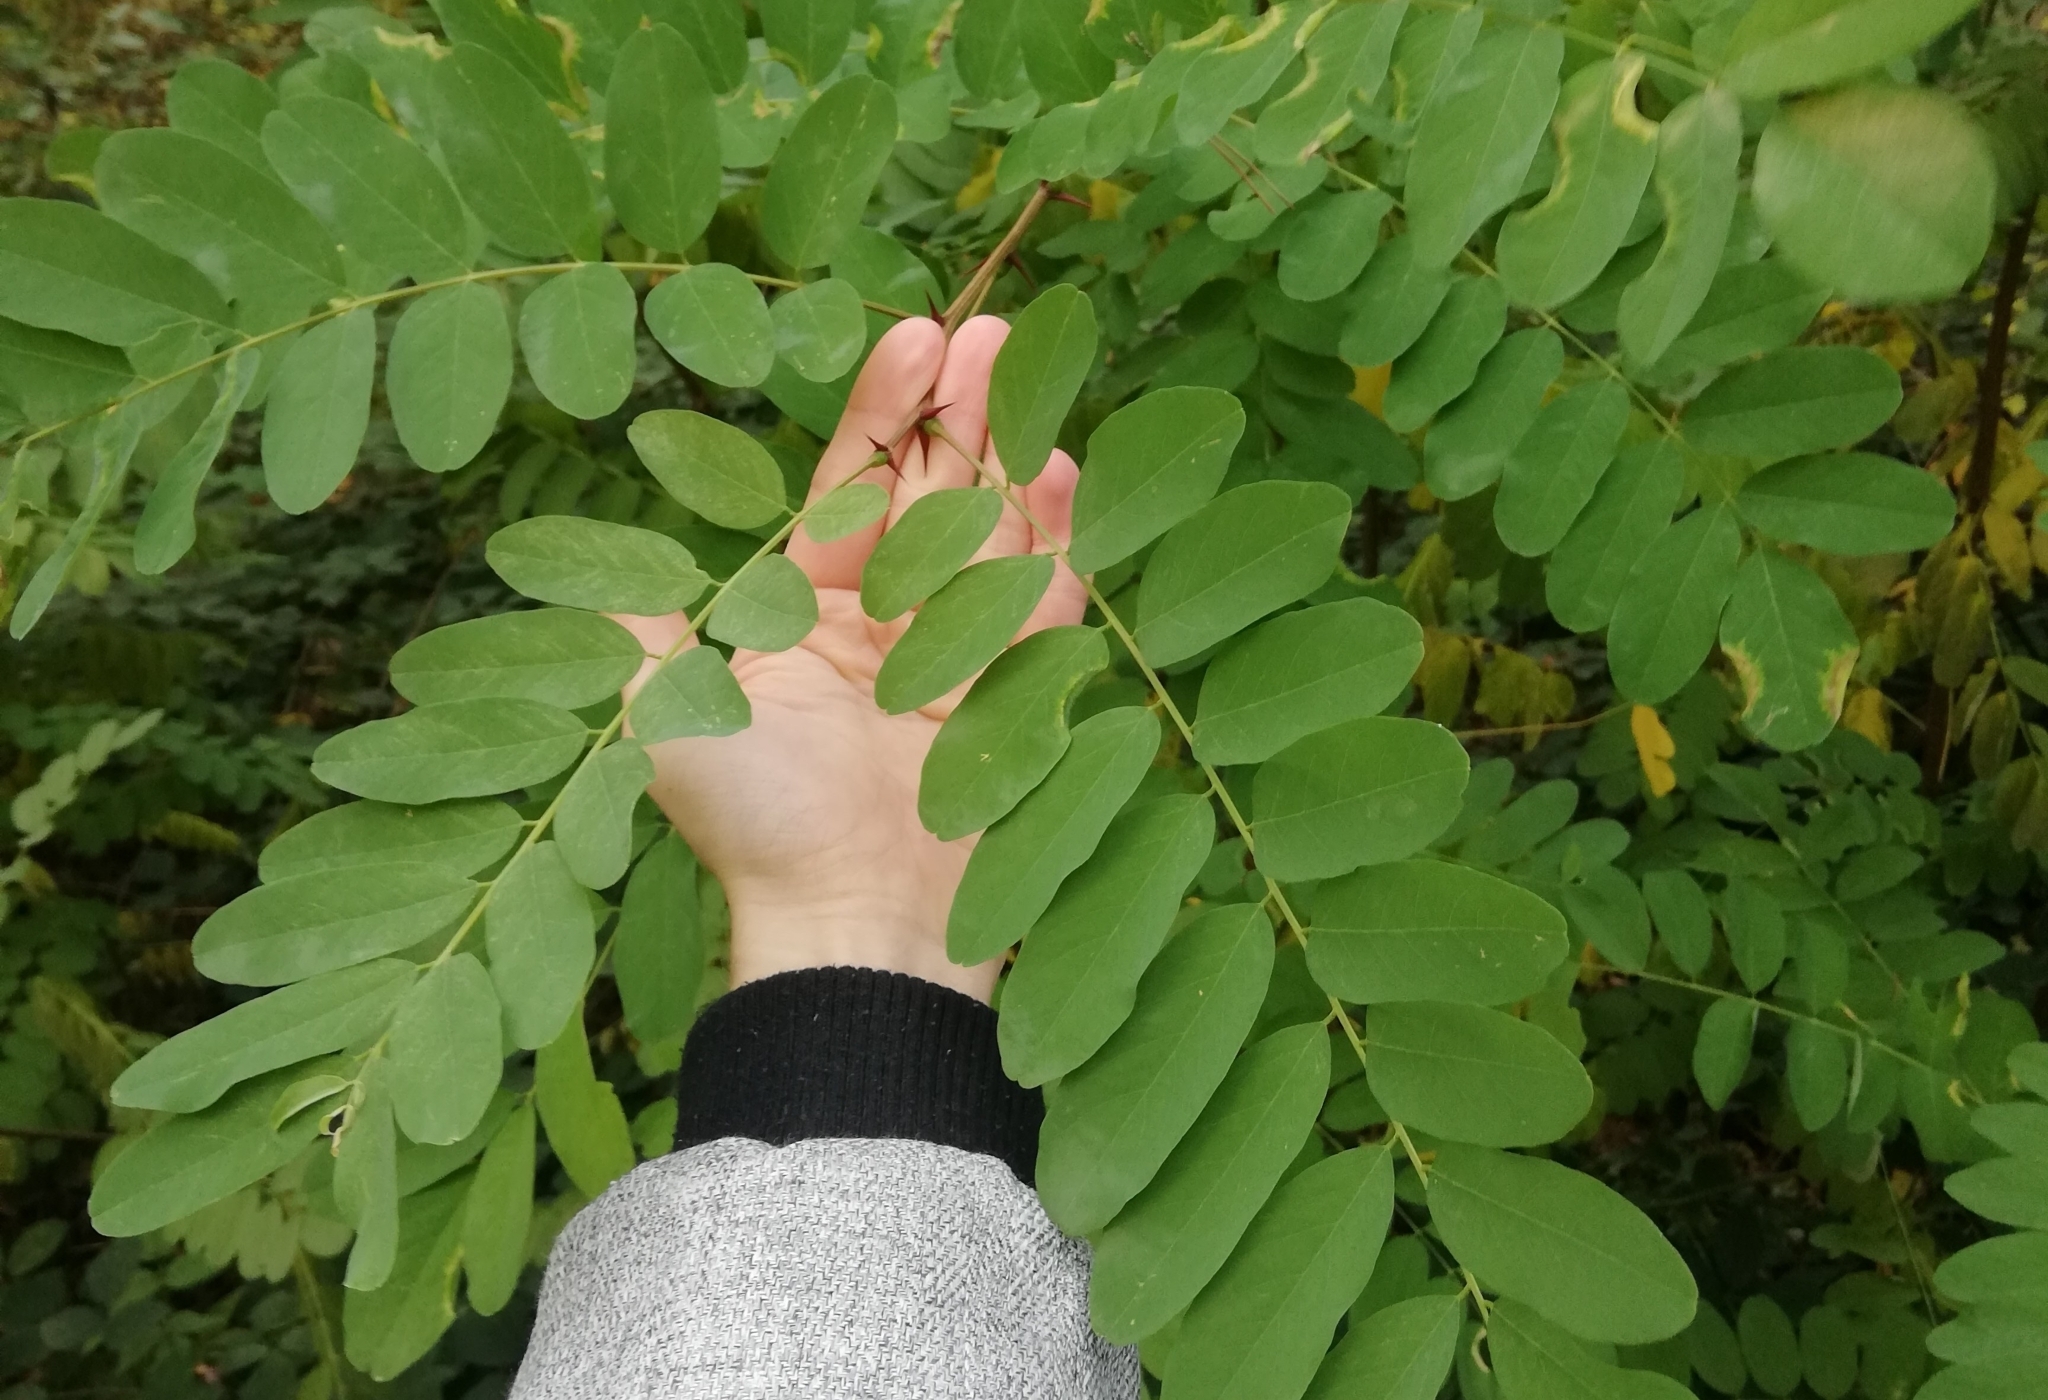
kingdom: Plantae
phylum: Tracheophyta
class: Magnoliopsida
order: Fabales
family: Fabaceae
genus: Robinia
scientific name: Robinia pseudoacacia
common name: Black locust
